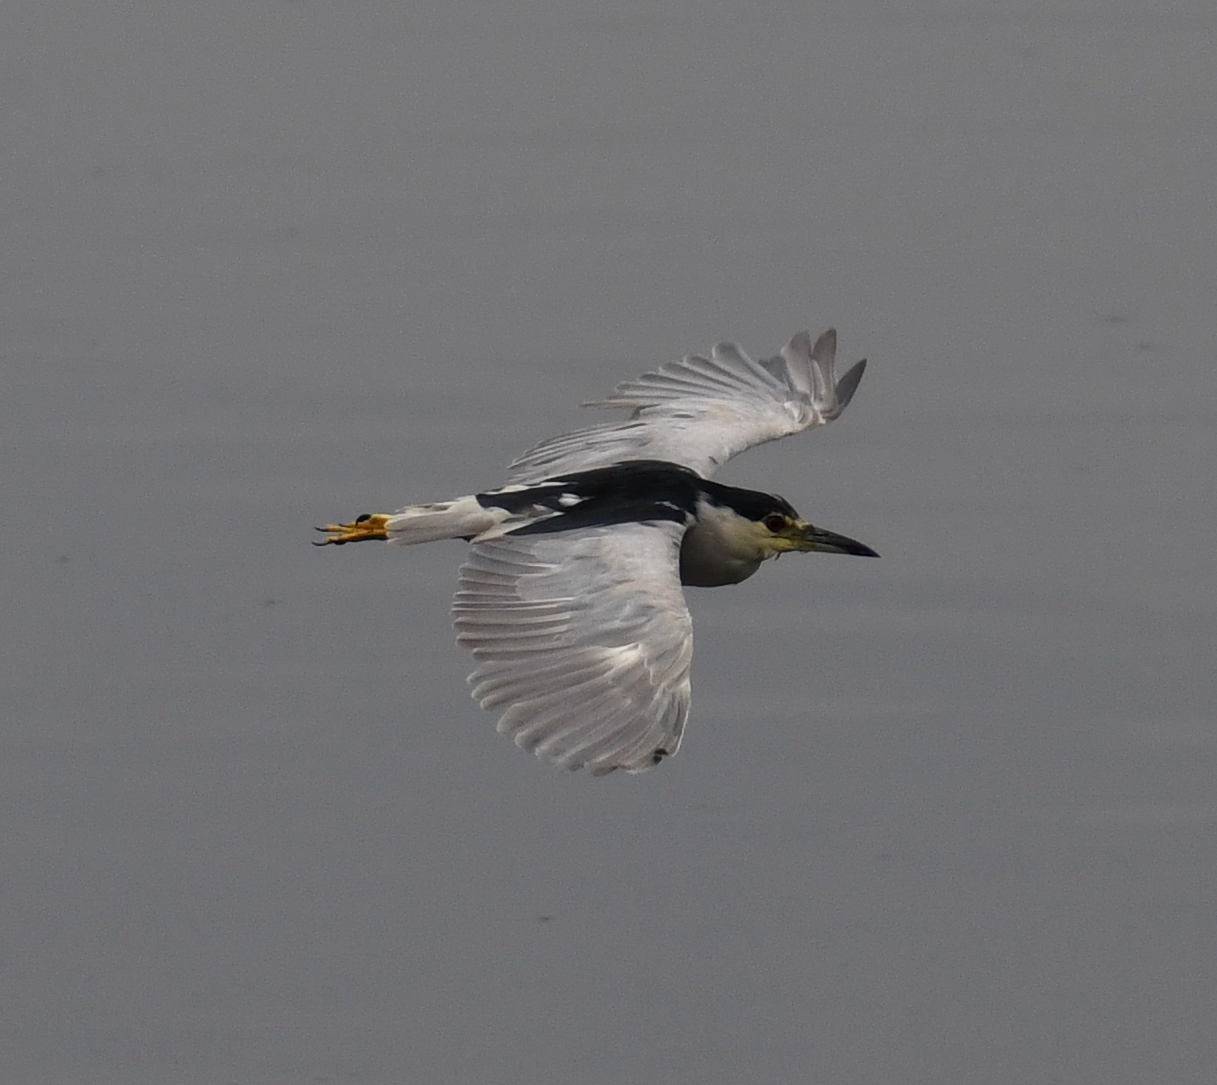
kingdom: Animalia
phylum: Chordata
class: Aves
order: Pelecaniformes
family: Ardeidae
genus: Nycticorax
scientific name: Nycticorax nycticorax
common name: Black-crowned night heron
